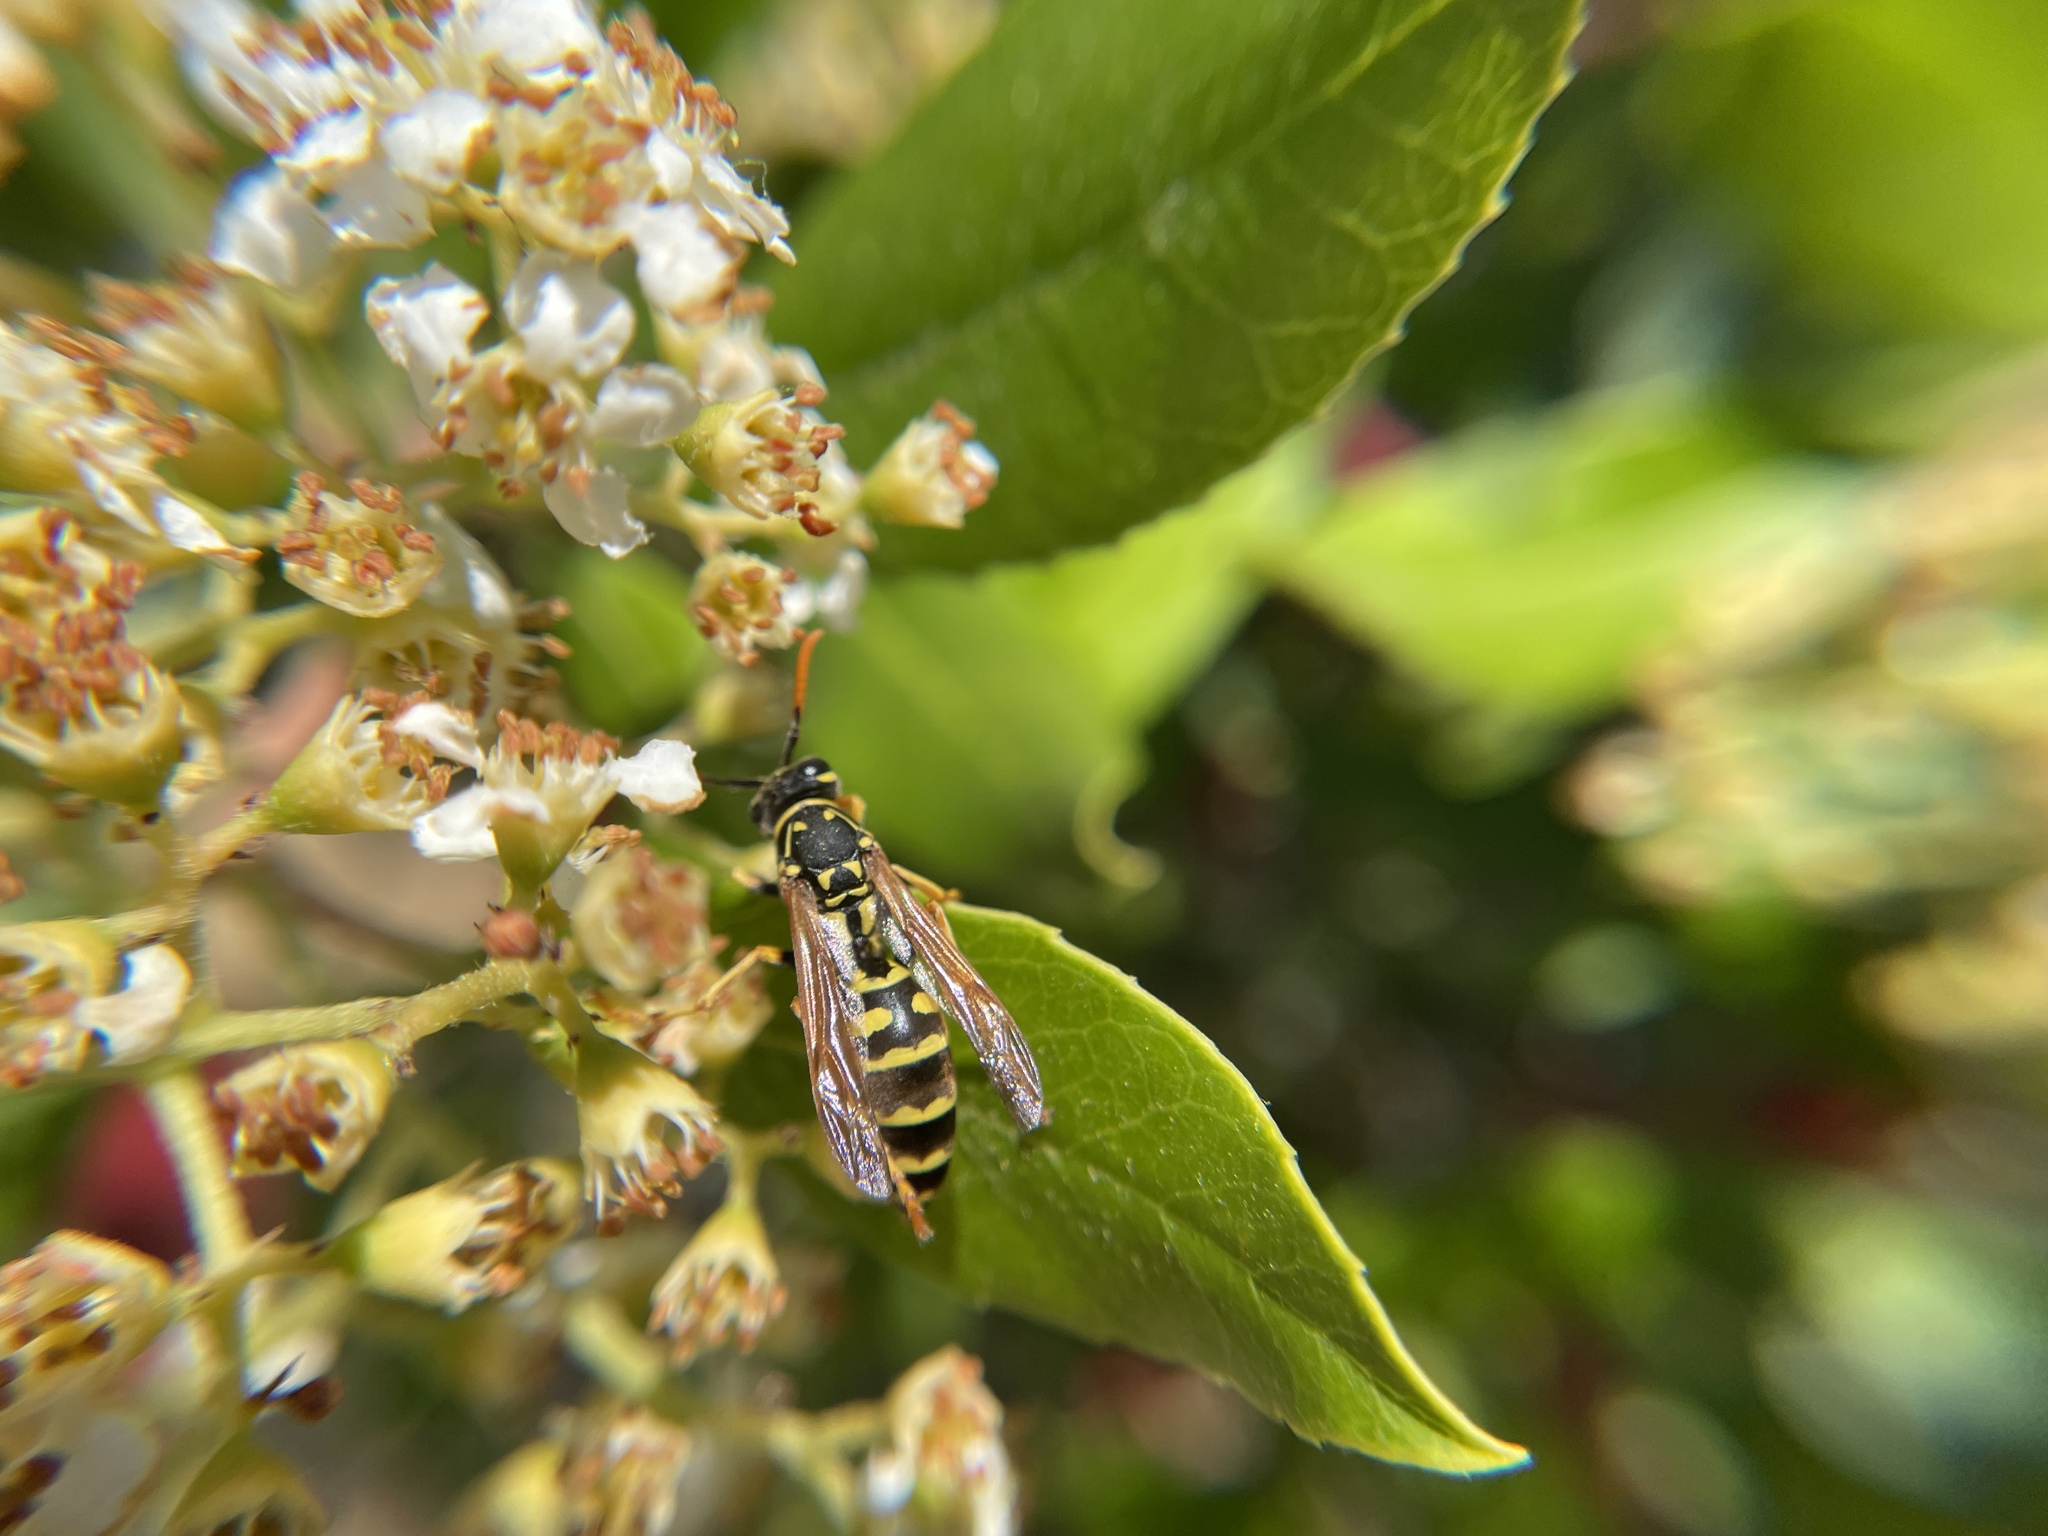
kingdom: Animalia
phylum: Arthropoda
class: Insecta
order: Hymenoptera
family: Eumenidae
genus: Polistes
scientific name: Polistes dominula
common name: Paper wasp
